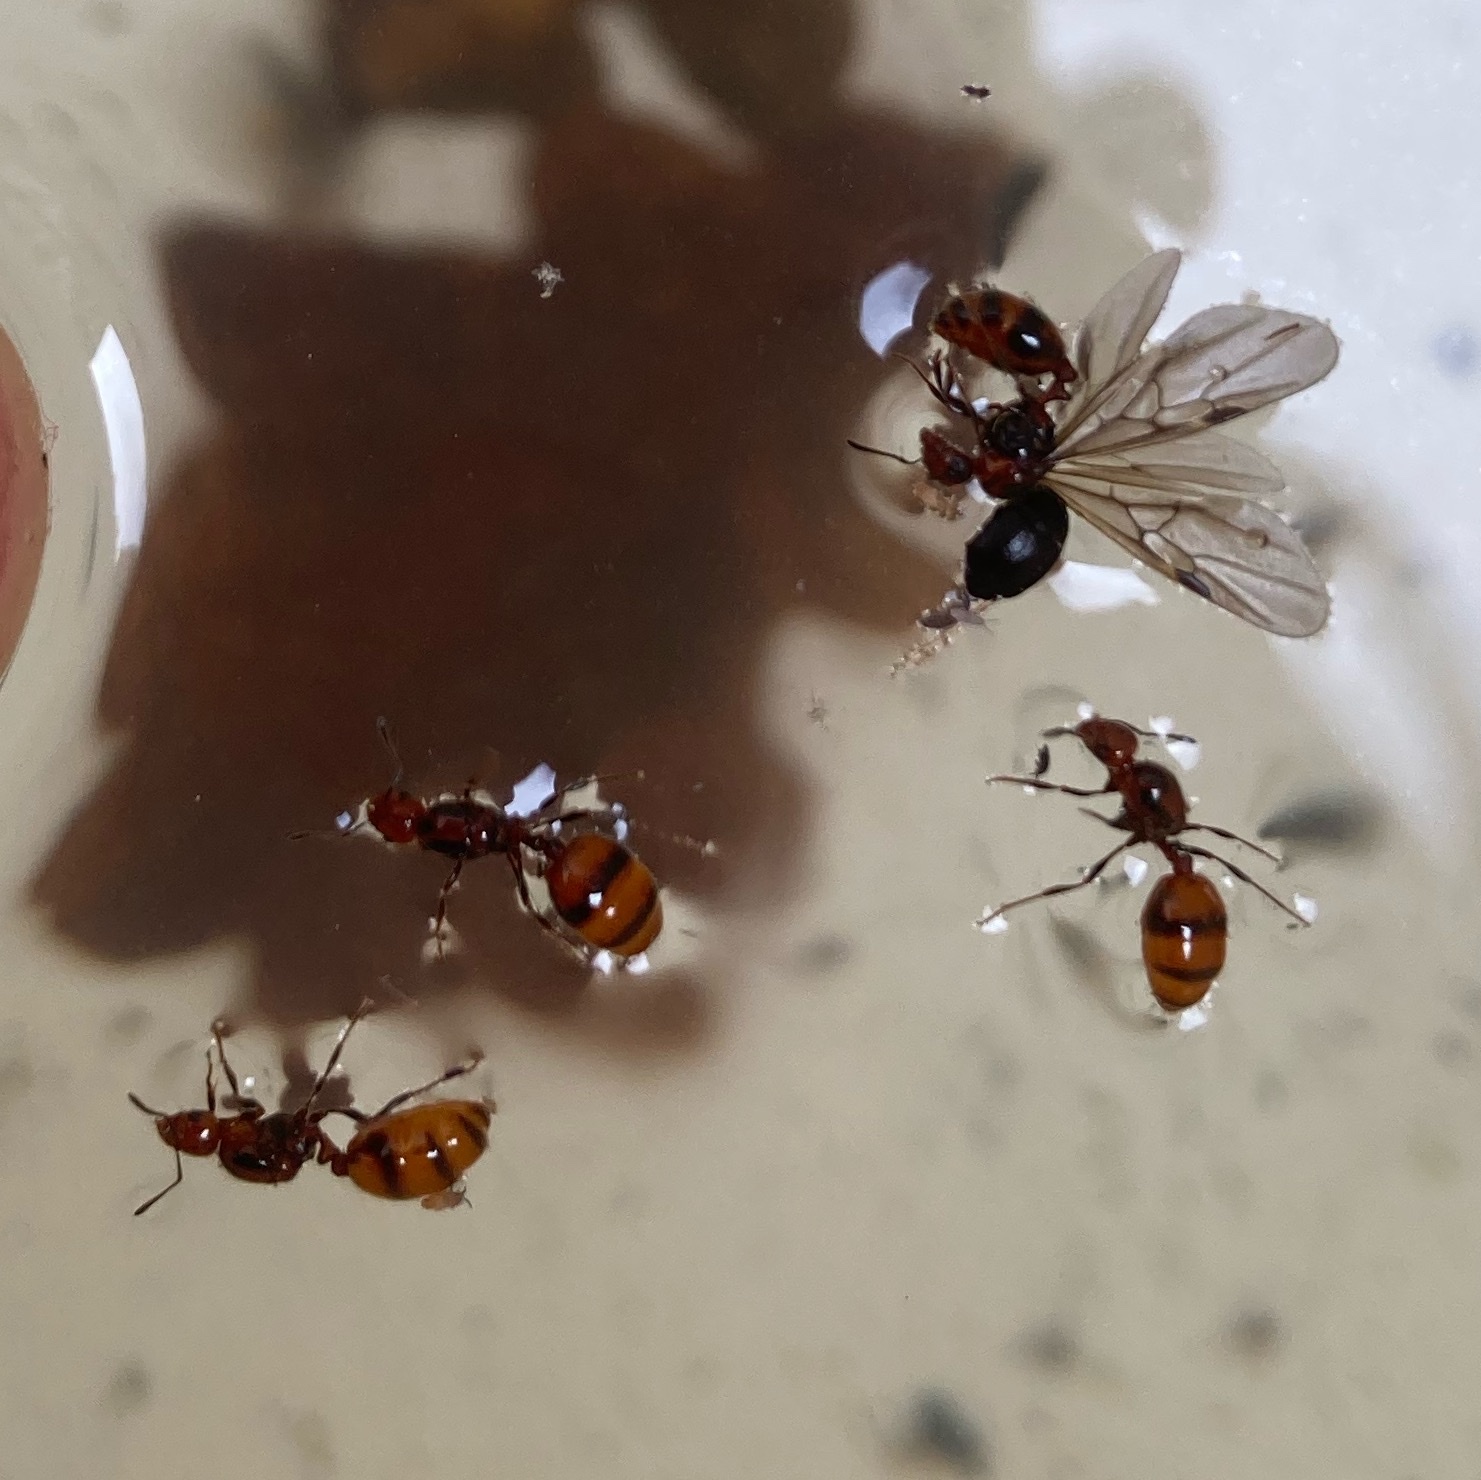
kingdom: Animalia
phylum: Arthropoda
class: Insecta
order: Hymenoptera
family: Formicidae
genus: Monomorium
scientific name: Monomorium antarcticum
